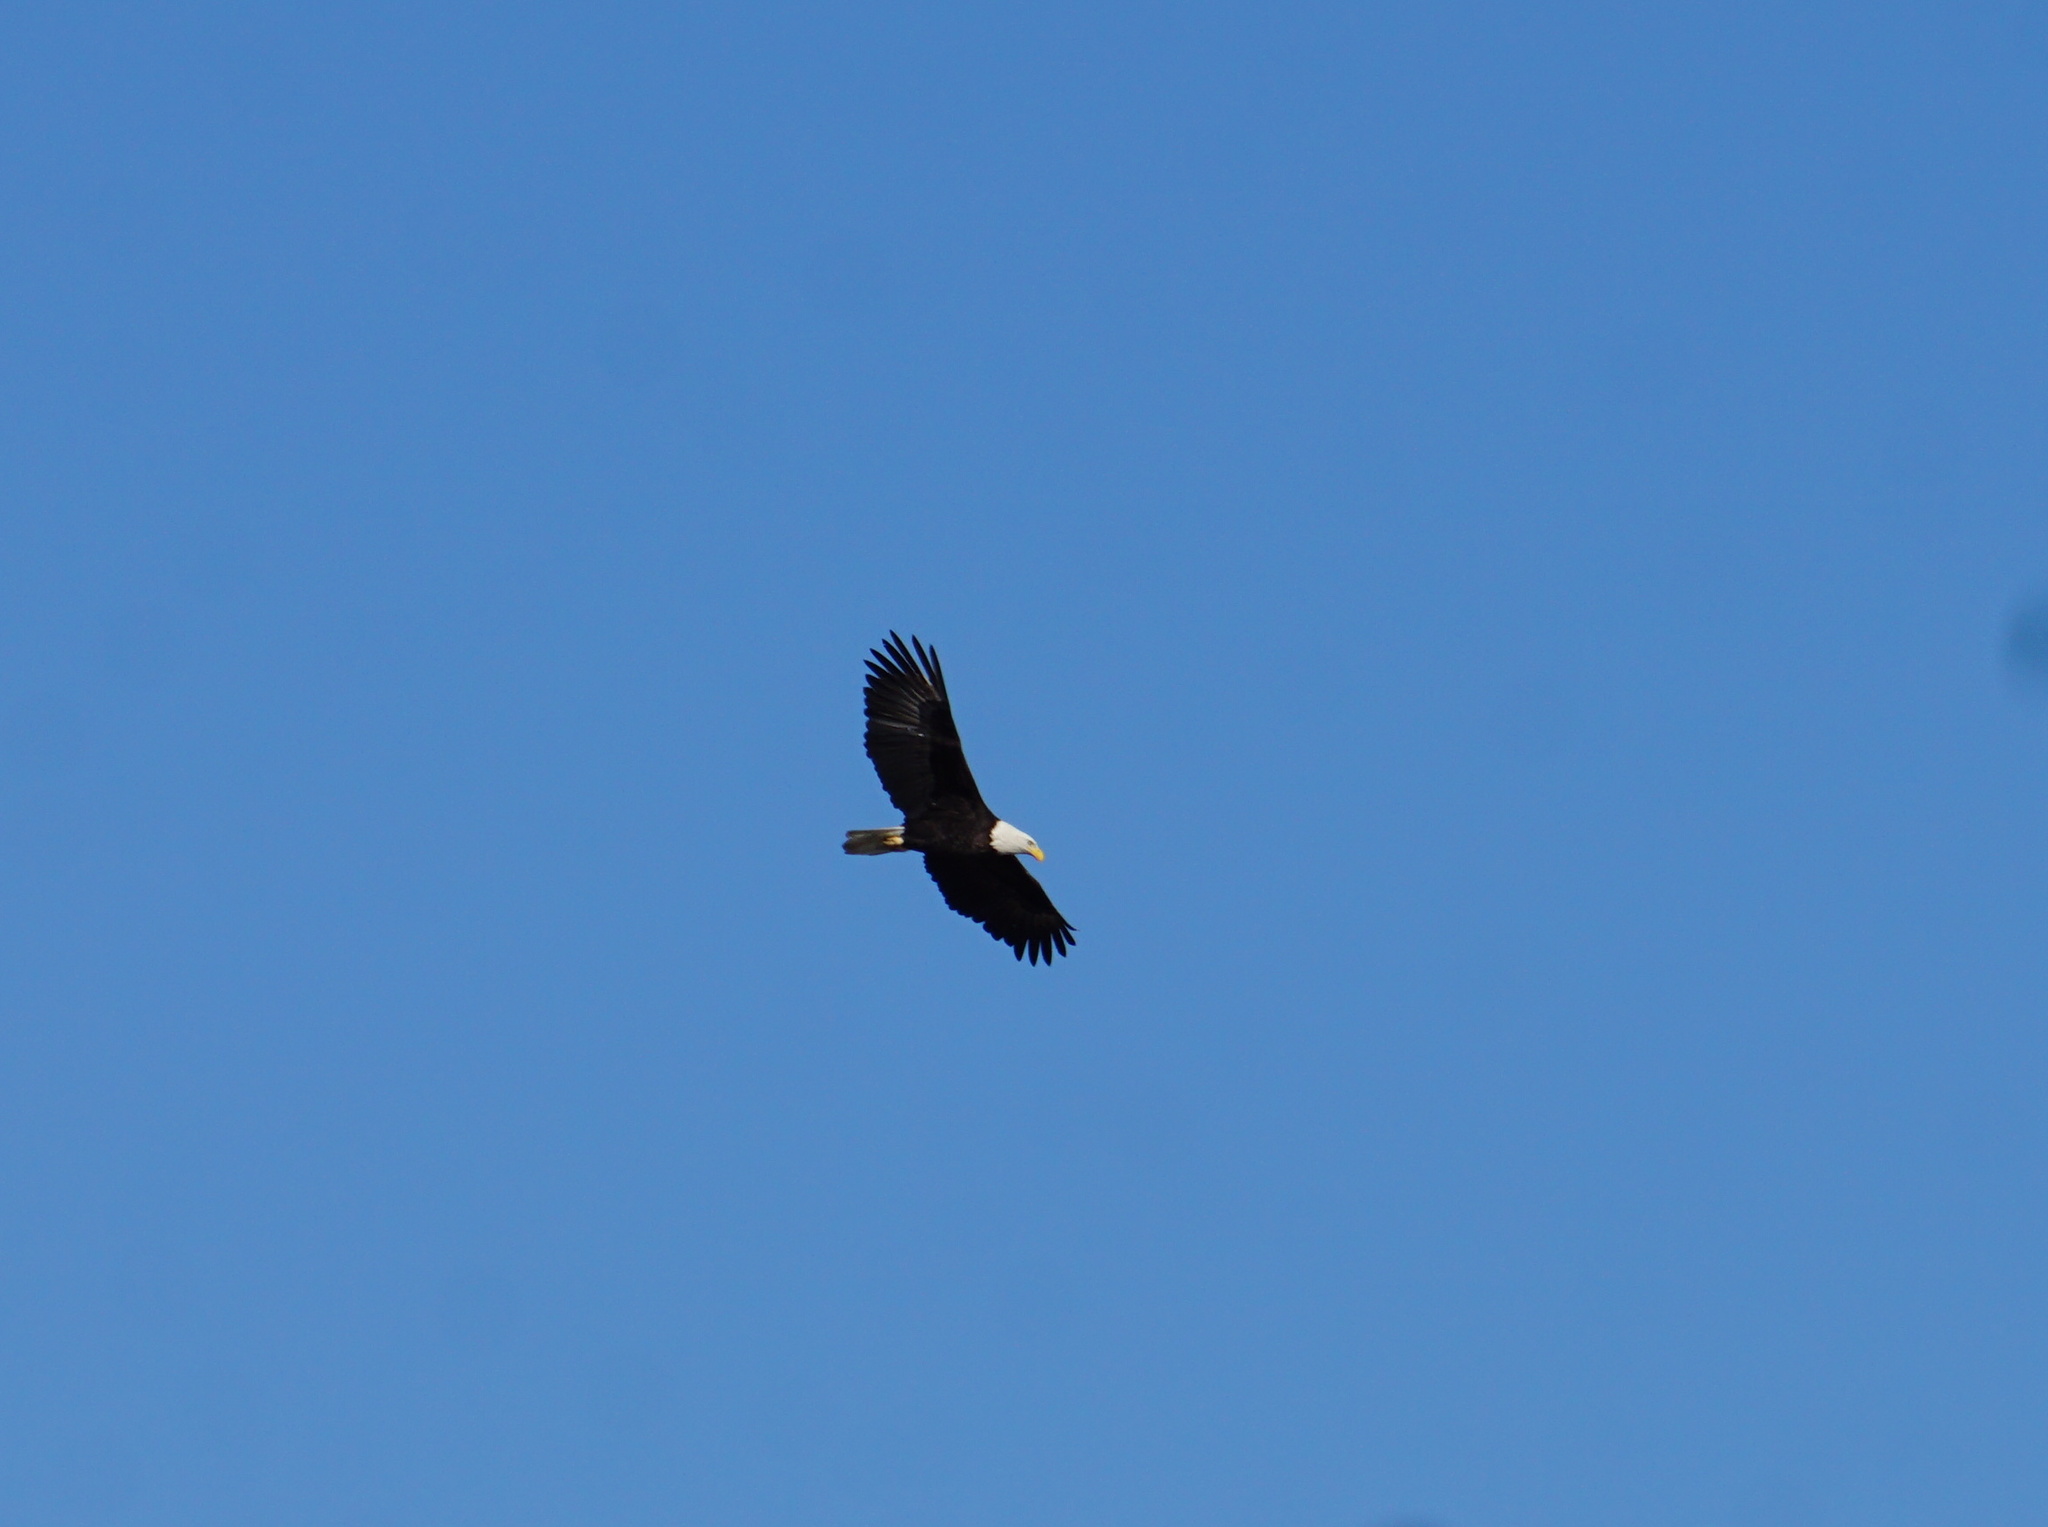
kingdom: Animalia
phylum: Chordata
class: Aves
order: Accipitriformes
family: Accipitridae
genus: Haliaeetus
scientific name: Haliaeetus leucocephalus
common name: Bald eagle
